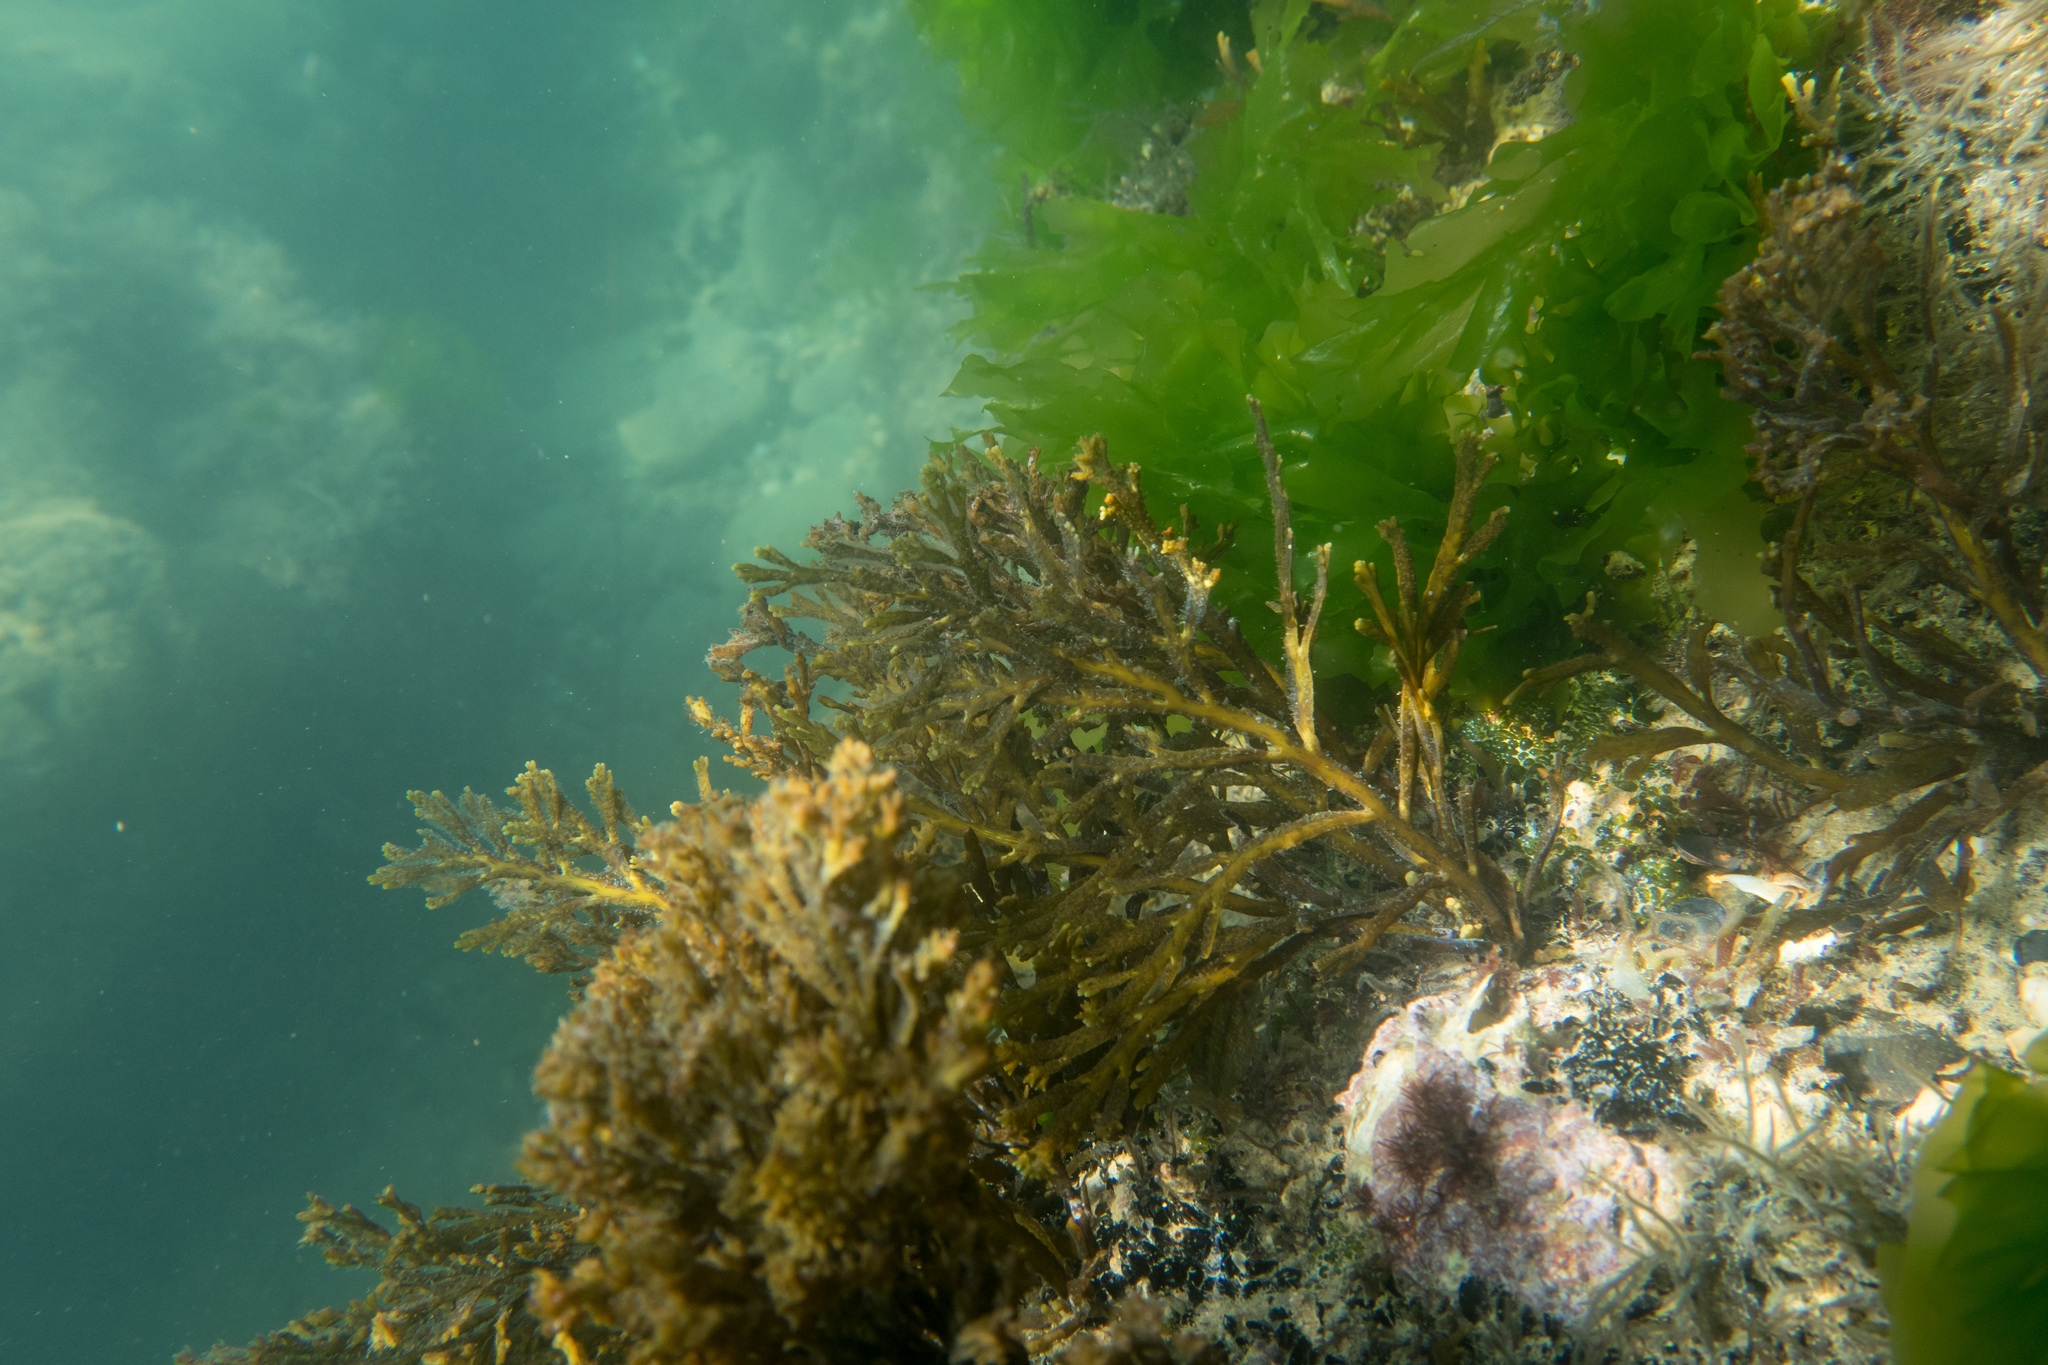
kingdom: Chromista
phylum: Ochrophyta
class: Phaeophyceae
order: Fucales
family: Sargassaceae
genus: Cystoseira
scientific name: Cystoseira compressa
